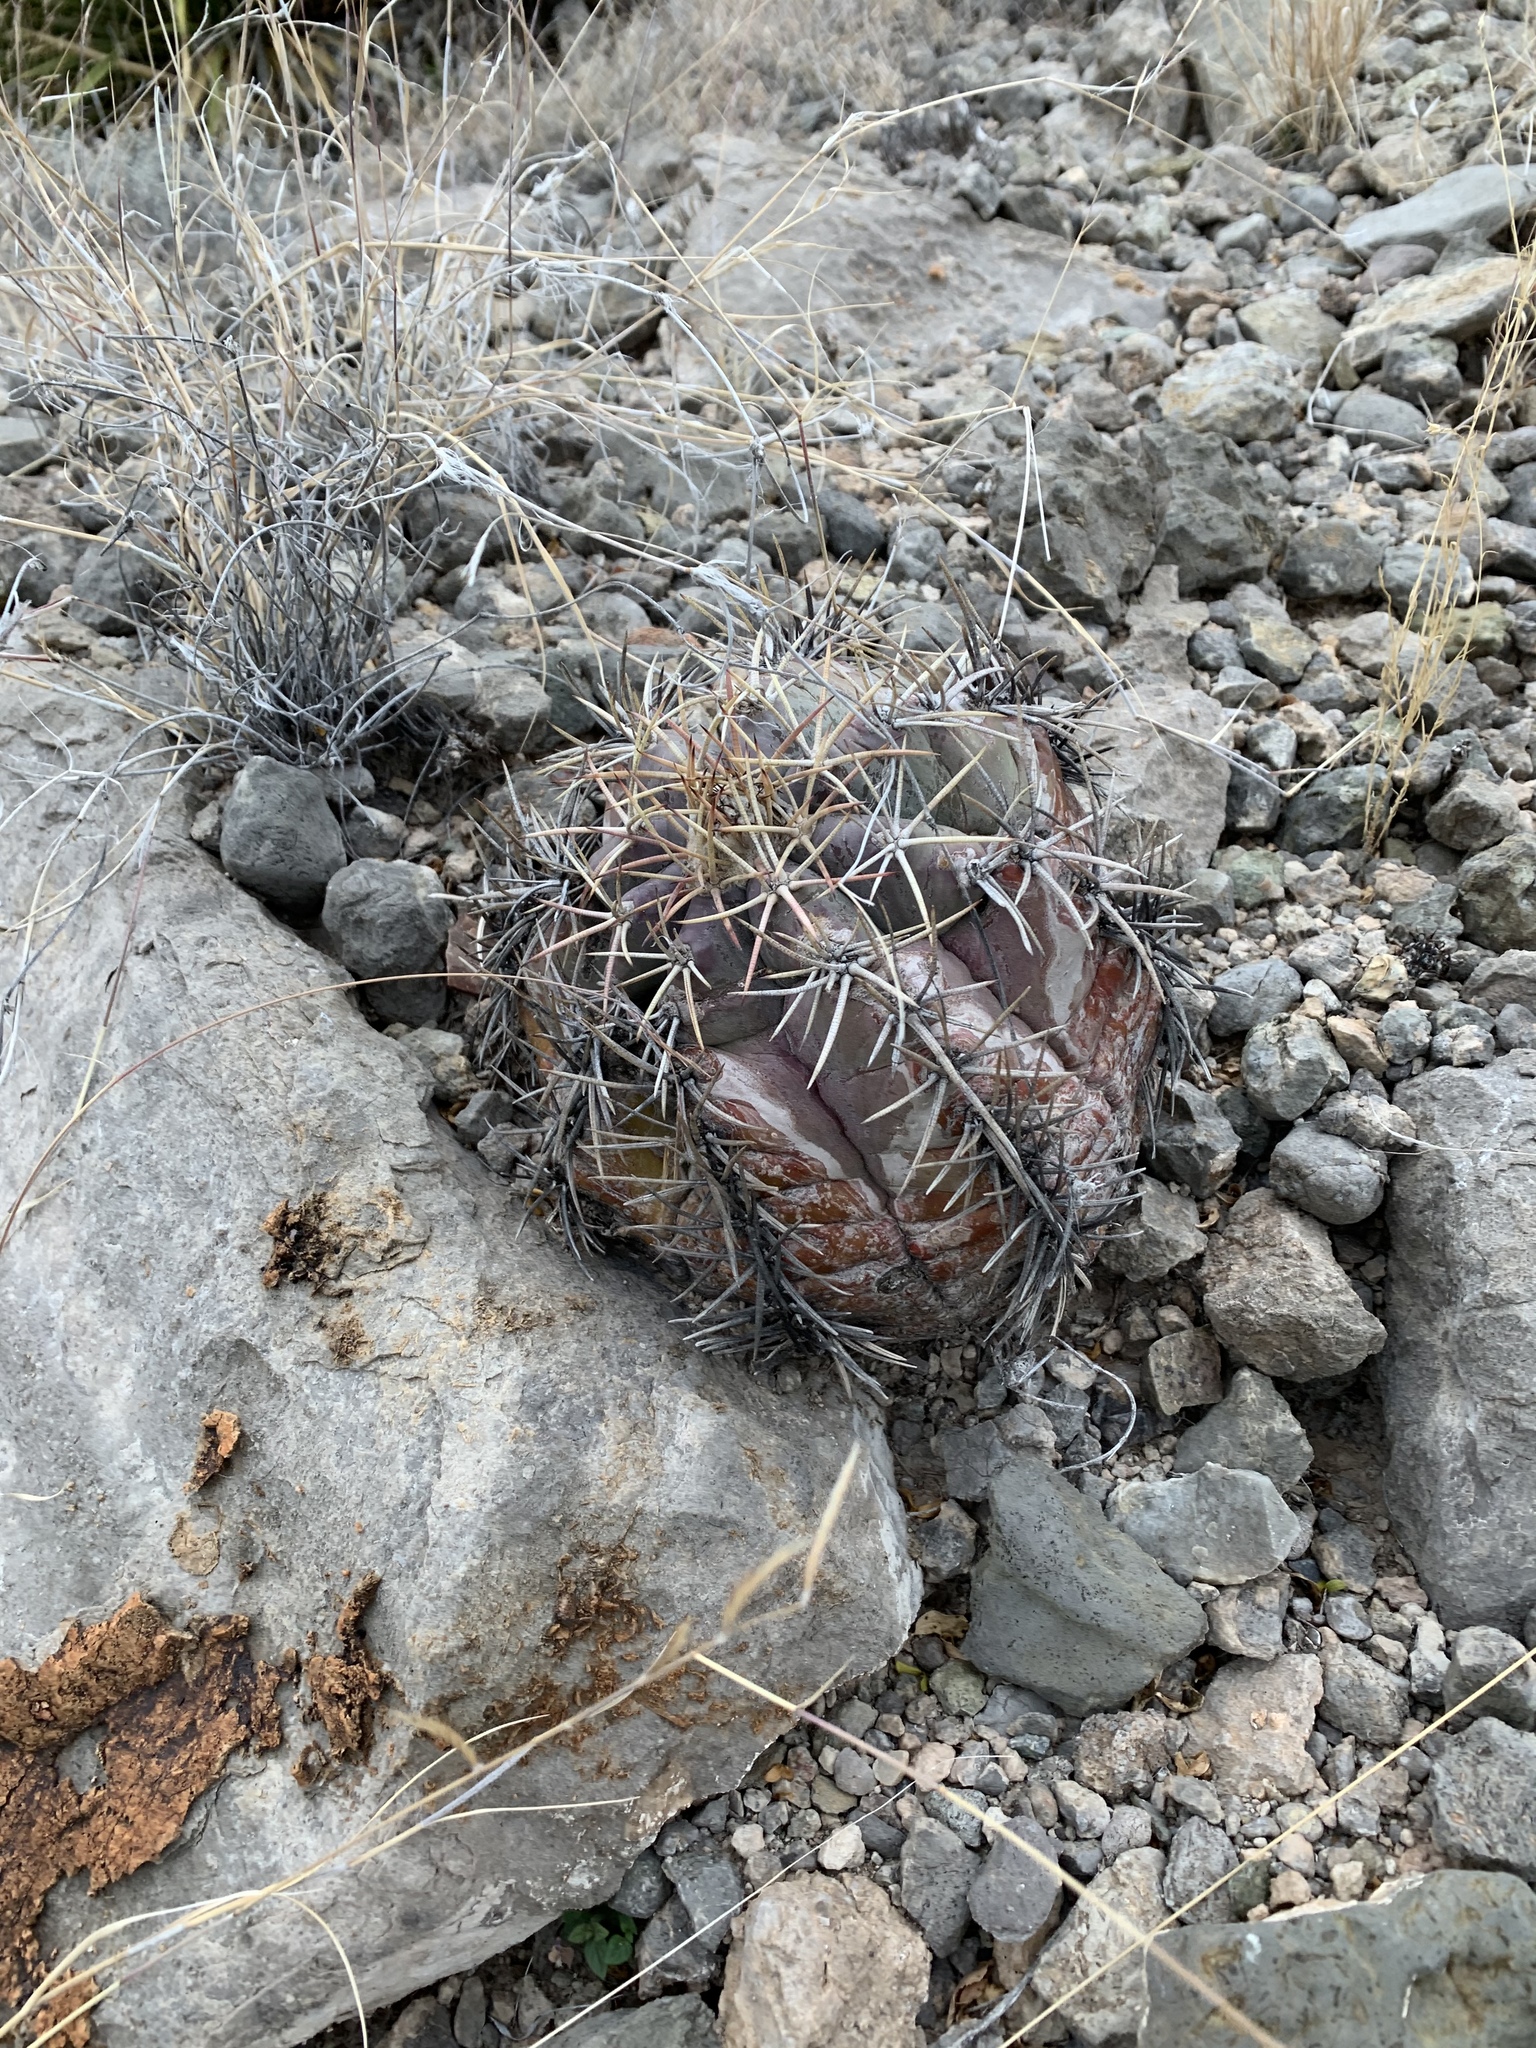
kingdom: Plantae
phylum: Tracheophyta
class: Magnoliopsida
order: Caryophyllales
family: Cactaceae
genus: Echinocactus
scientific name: Echinocactus horizonthalonius
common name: Devilshead
